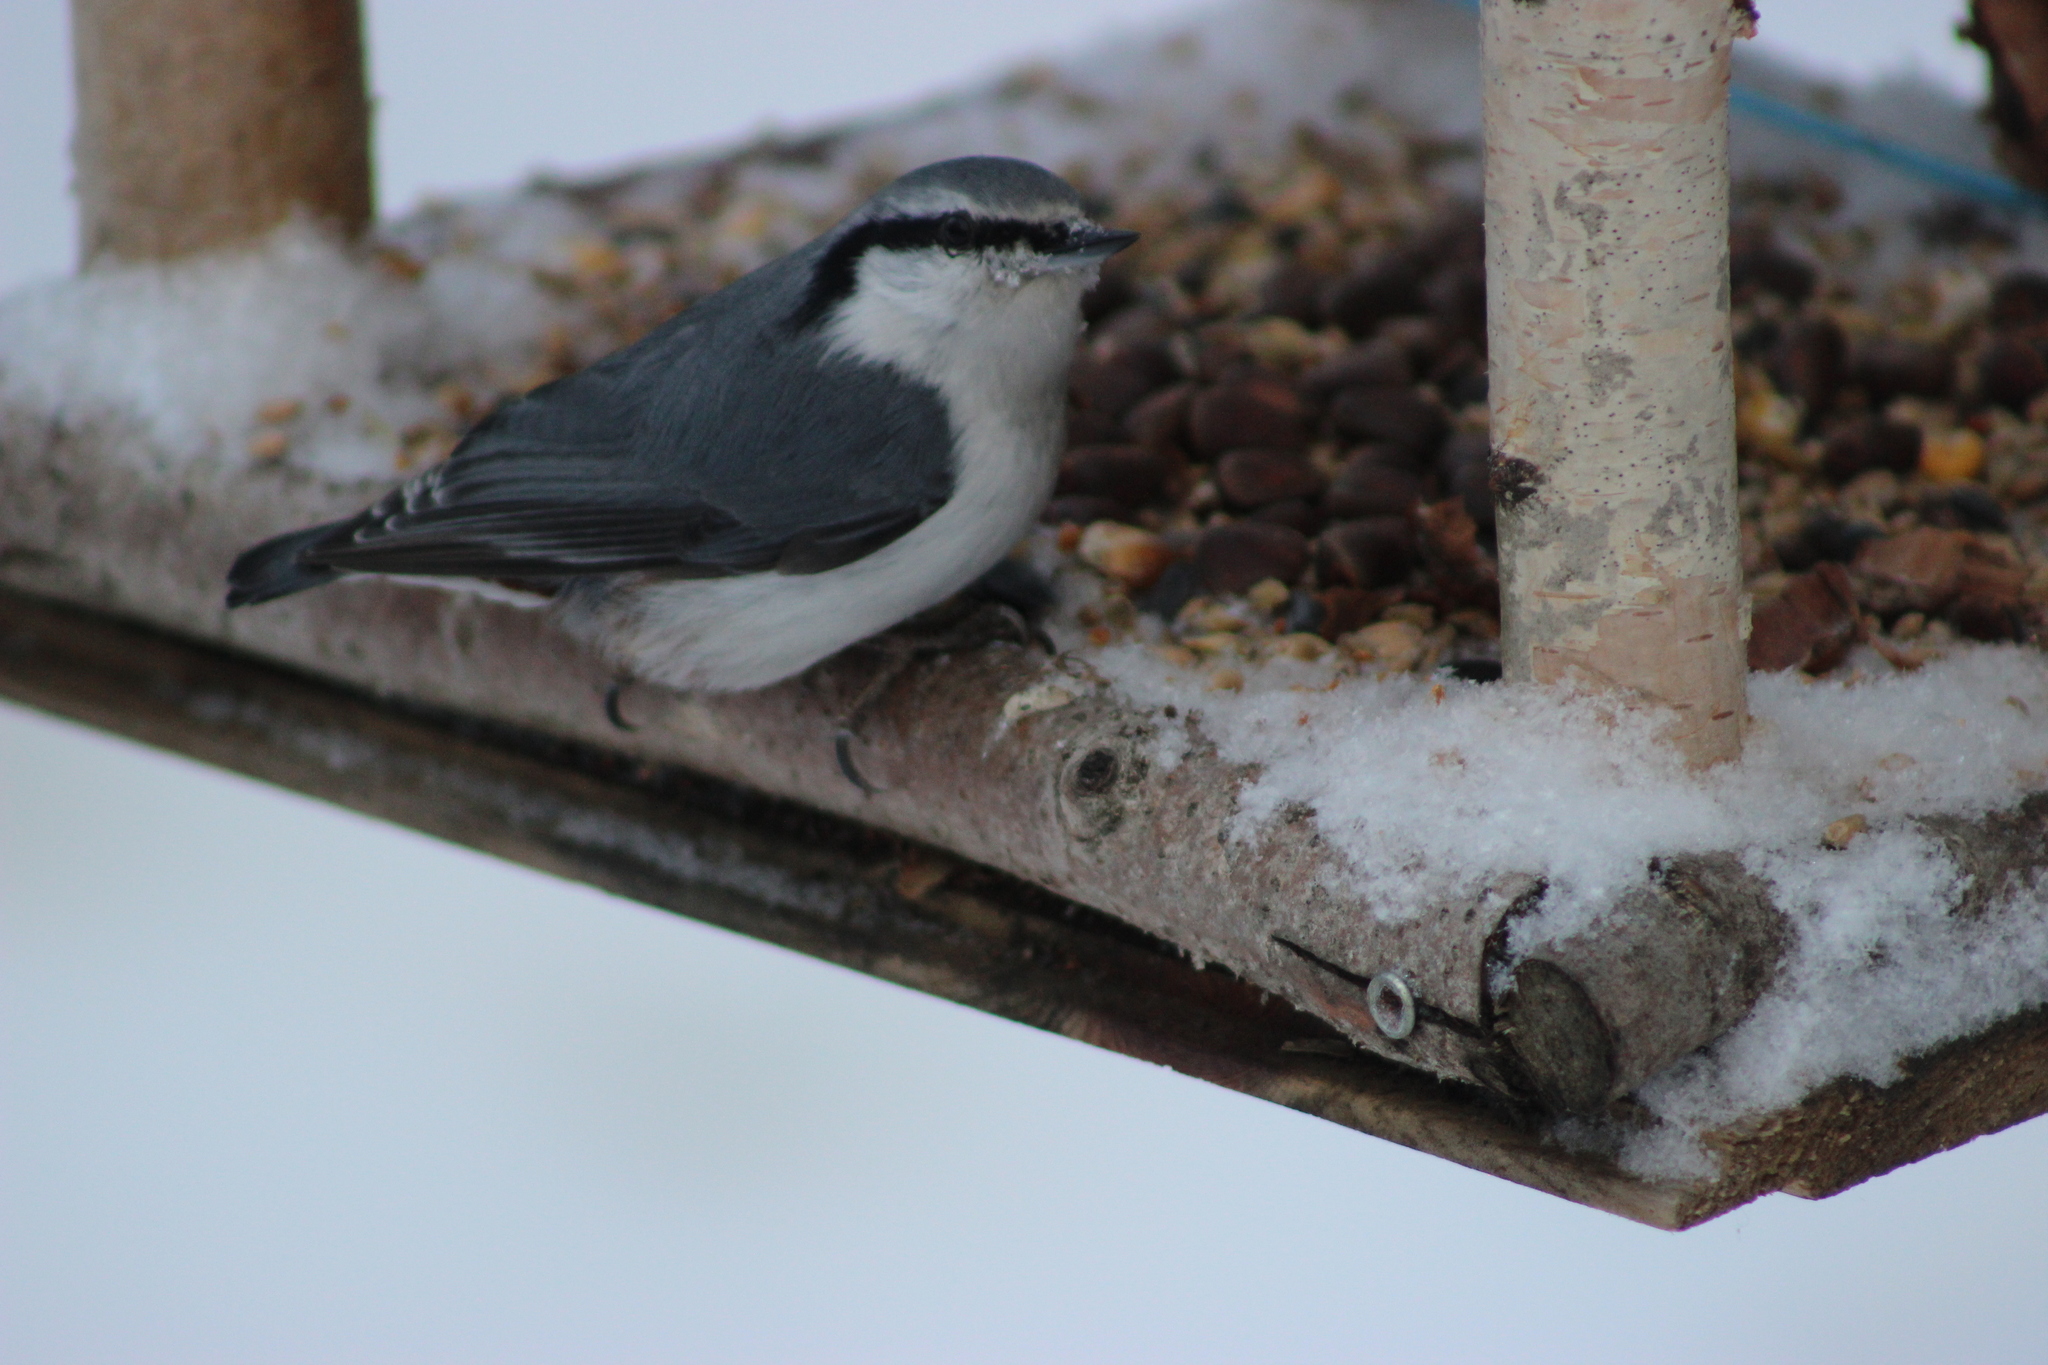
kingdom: Animalia
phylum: Chordata
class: Aves
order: Passeriformes
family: Sittidae
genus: Sitta
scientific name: Sitta europaea
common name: Eurasian nuthatch
